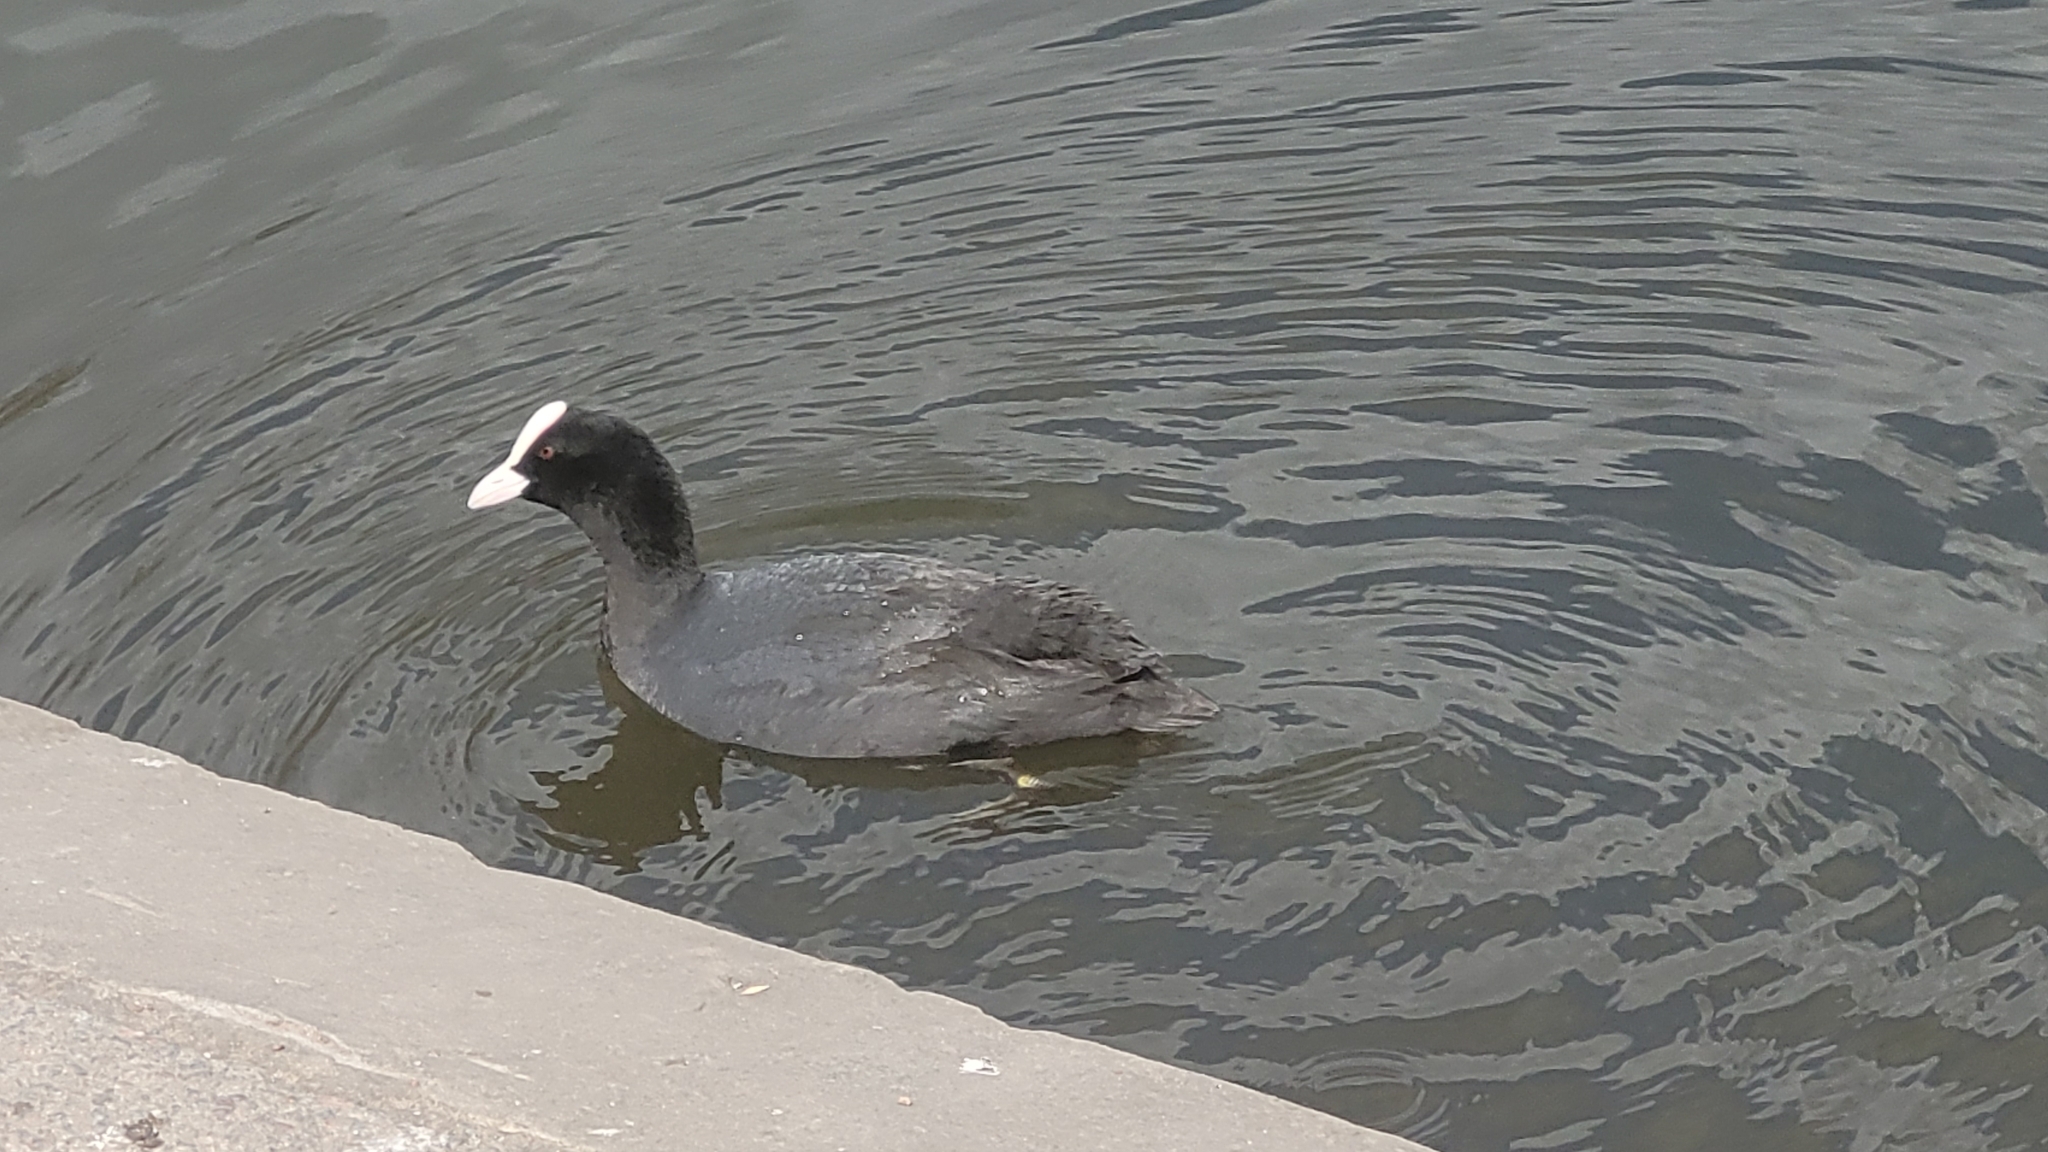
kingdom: Animalia
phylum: Chordata
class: Aves
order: Gruiformes
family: Rallidae
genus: Fulica
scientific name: Fulica atra
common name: Eurasian coot
